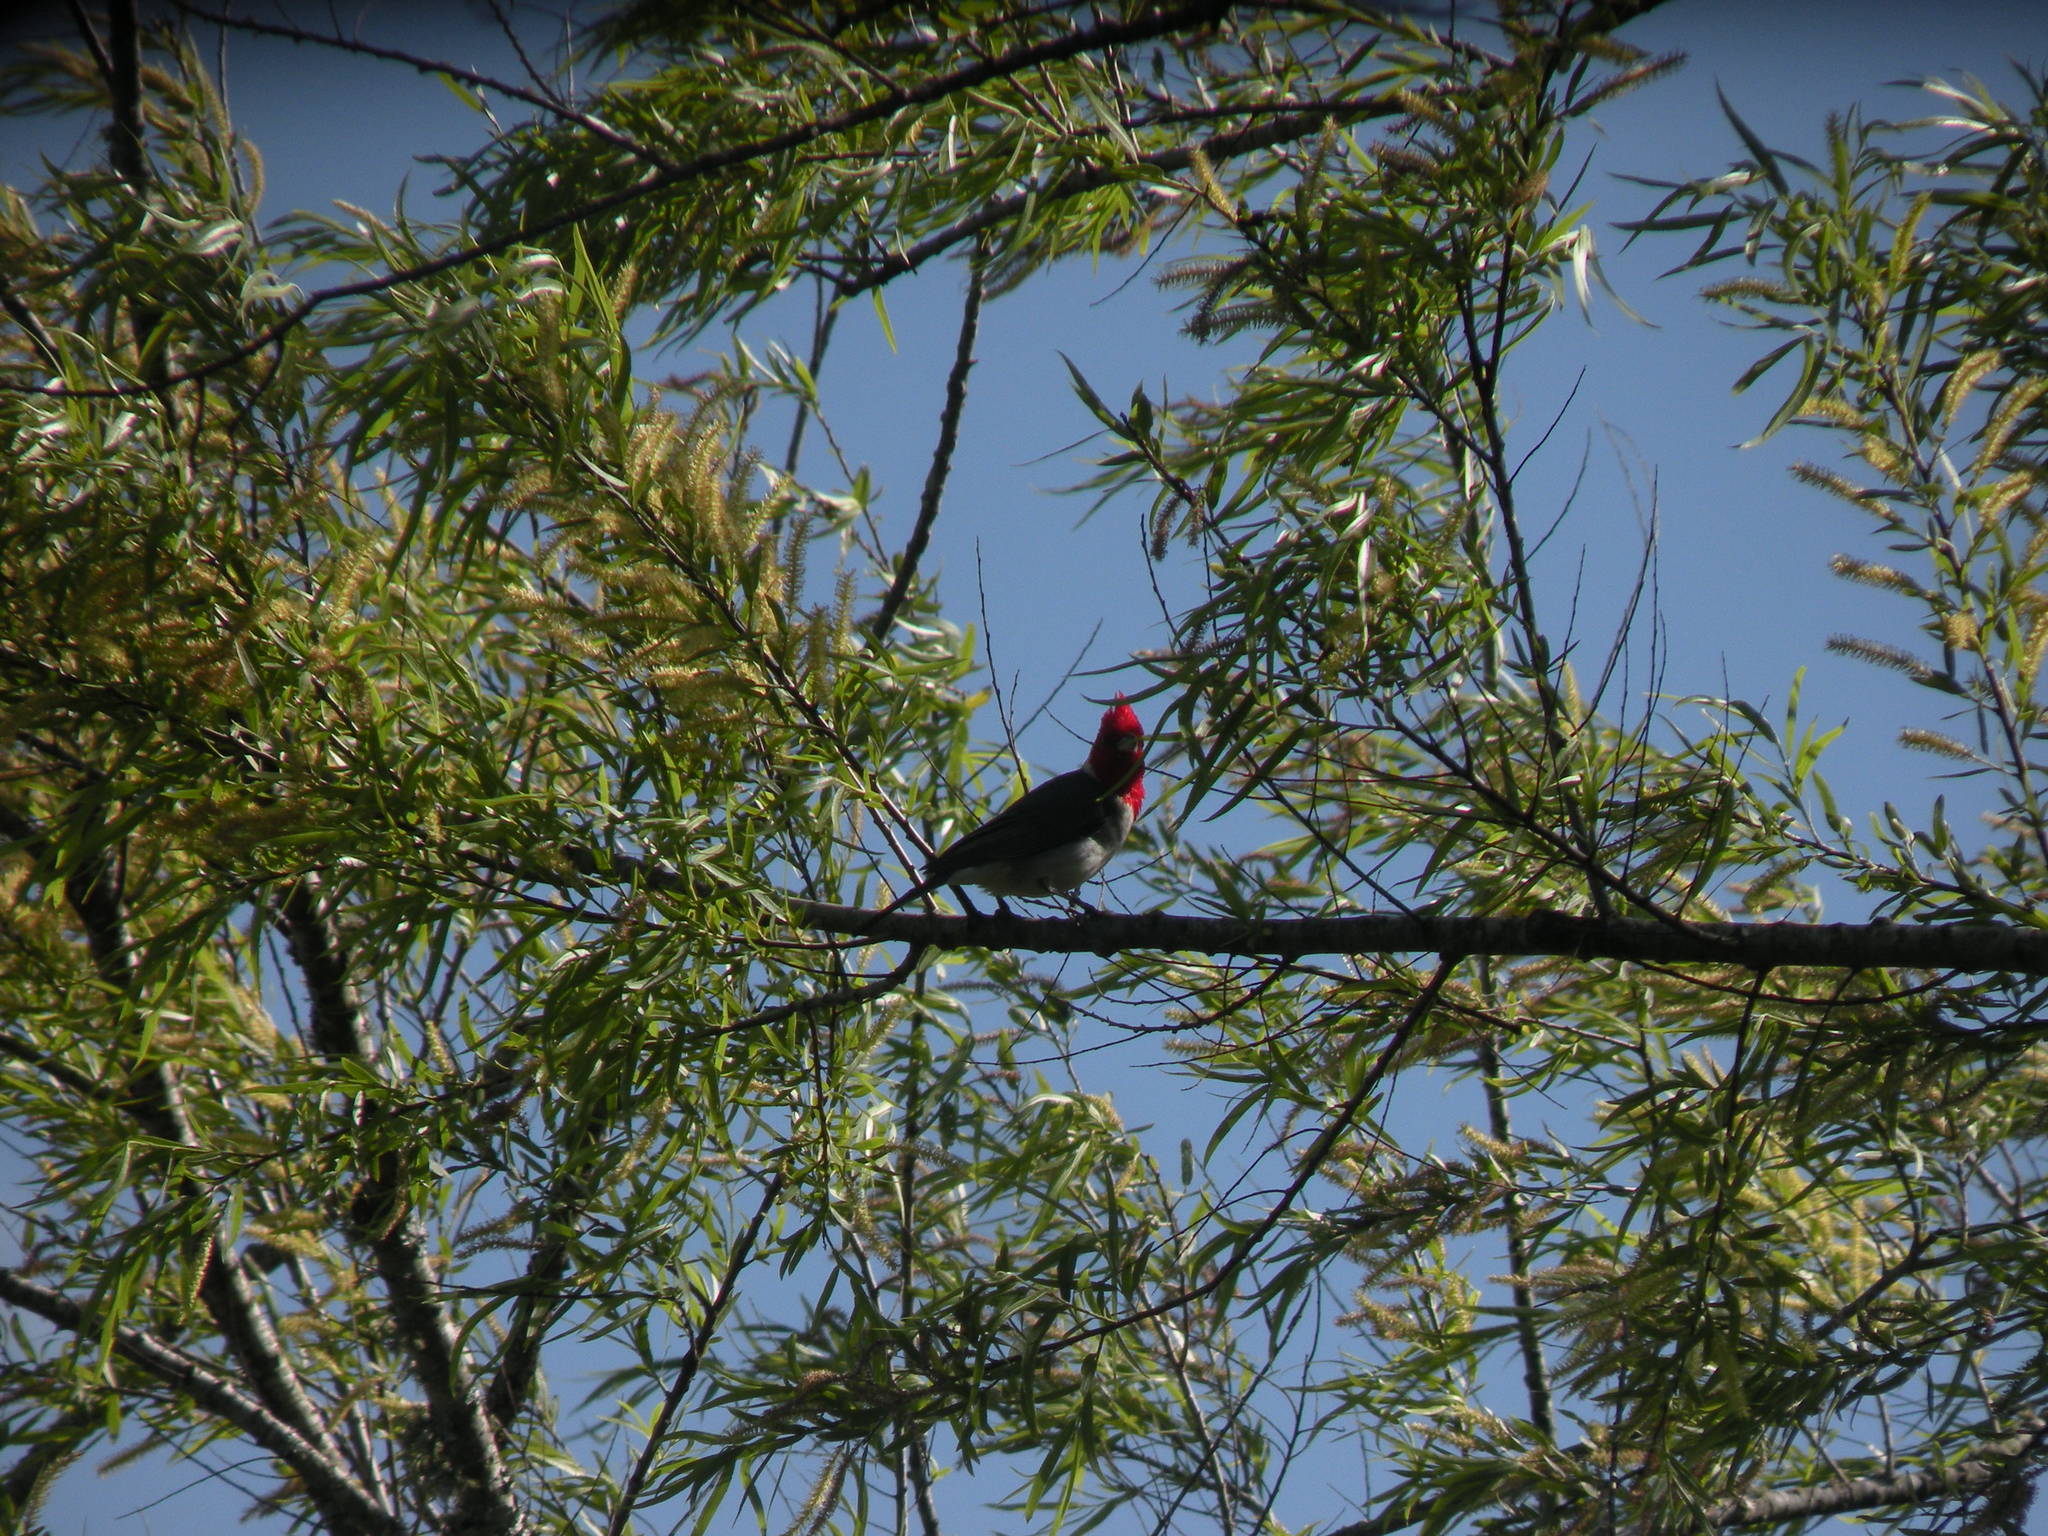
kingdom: Animalia
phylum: Chordata
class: Aves
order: Passeriformes
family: Thraupidae
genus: Paroaria
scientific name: Paroaria coronata
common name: Red-crested cardinal
